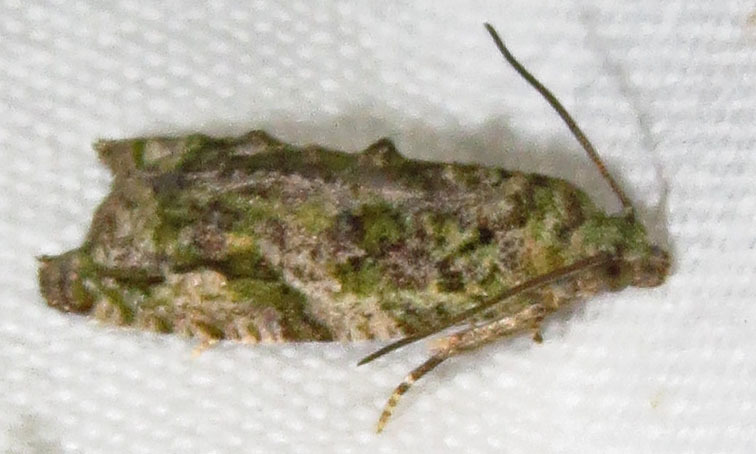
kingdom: Animalia
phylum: Arthropoda
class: Insecta
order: Lepidoptera
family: Tortricidae
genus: Proteoteras
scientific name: Proteoteras aesculana
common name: Maple twig borer moth
